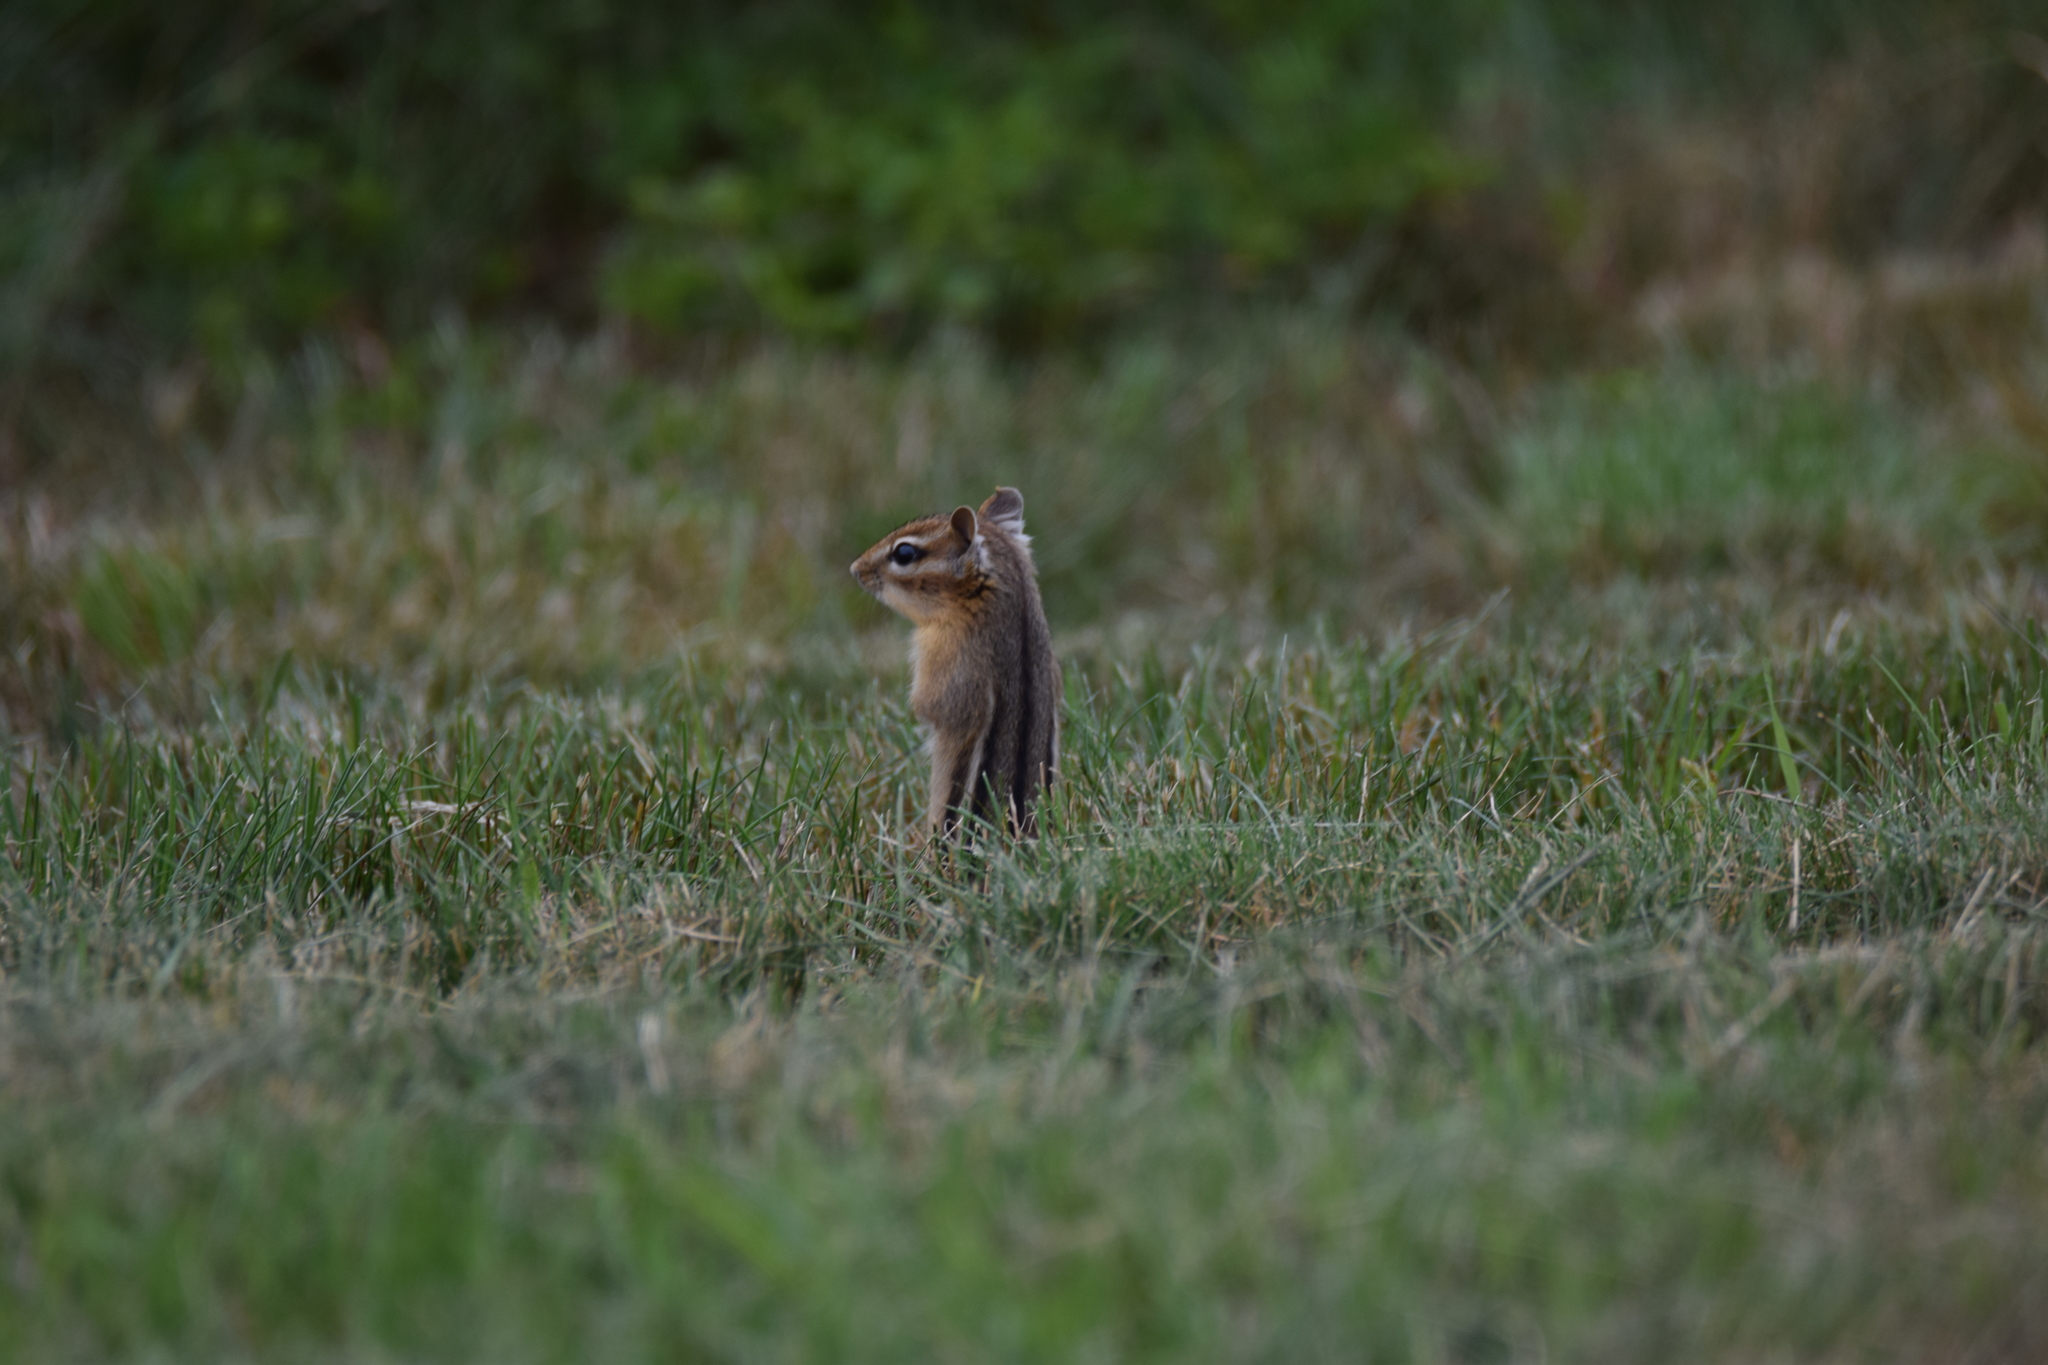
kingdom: Animalia
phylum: Chordata
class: Mammalia
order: Rodentia
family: Sciuridae
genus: Tamias
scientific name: Tamias striatus
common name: Eastern chipmunk
